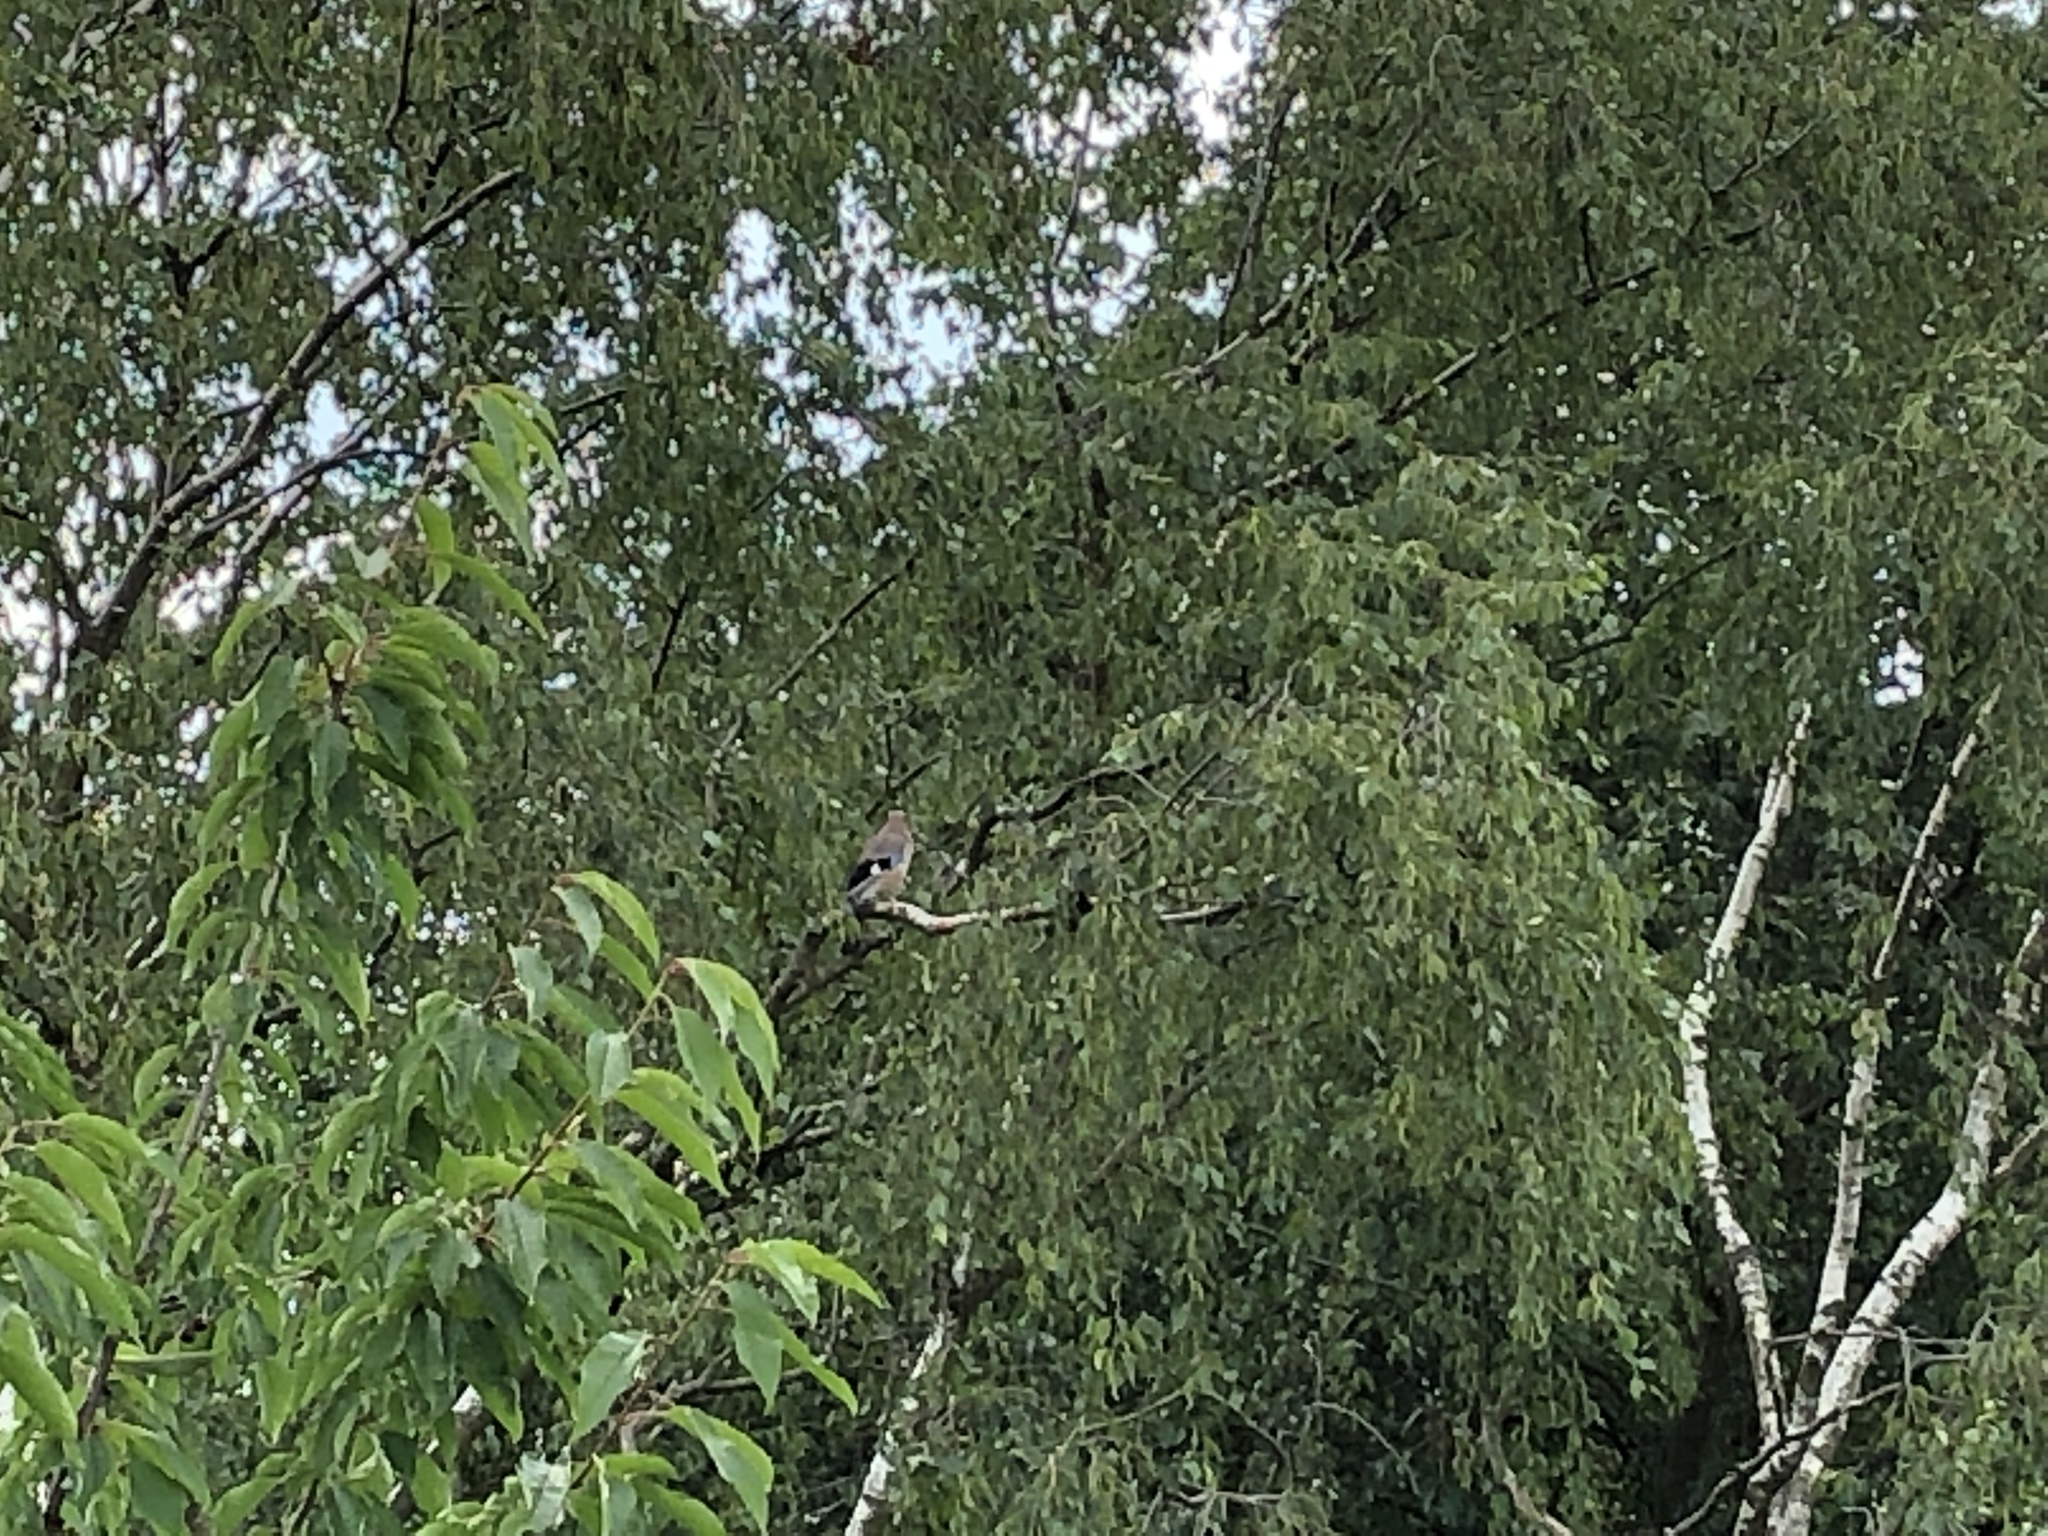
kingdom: Animalia
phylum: Chordata
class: Aves
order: Passeriformes
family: Corvidae
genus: Garrulus
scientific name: Garrulus glandarius
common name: Eurasian jay
